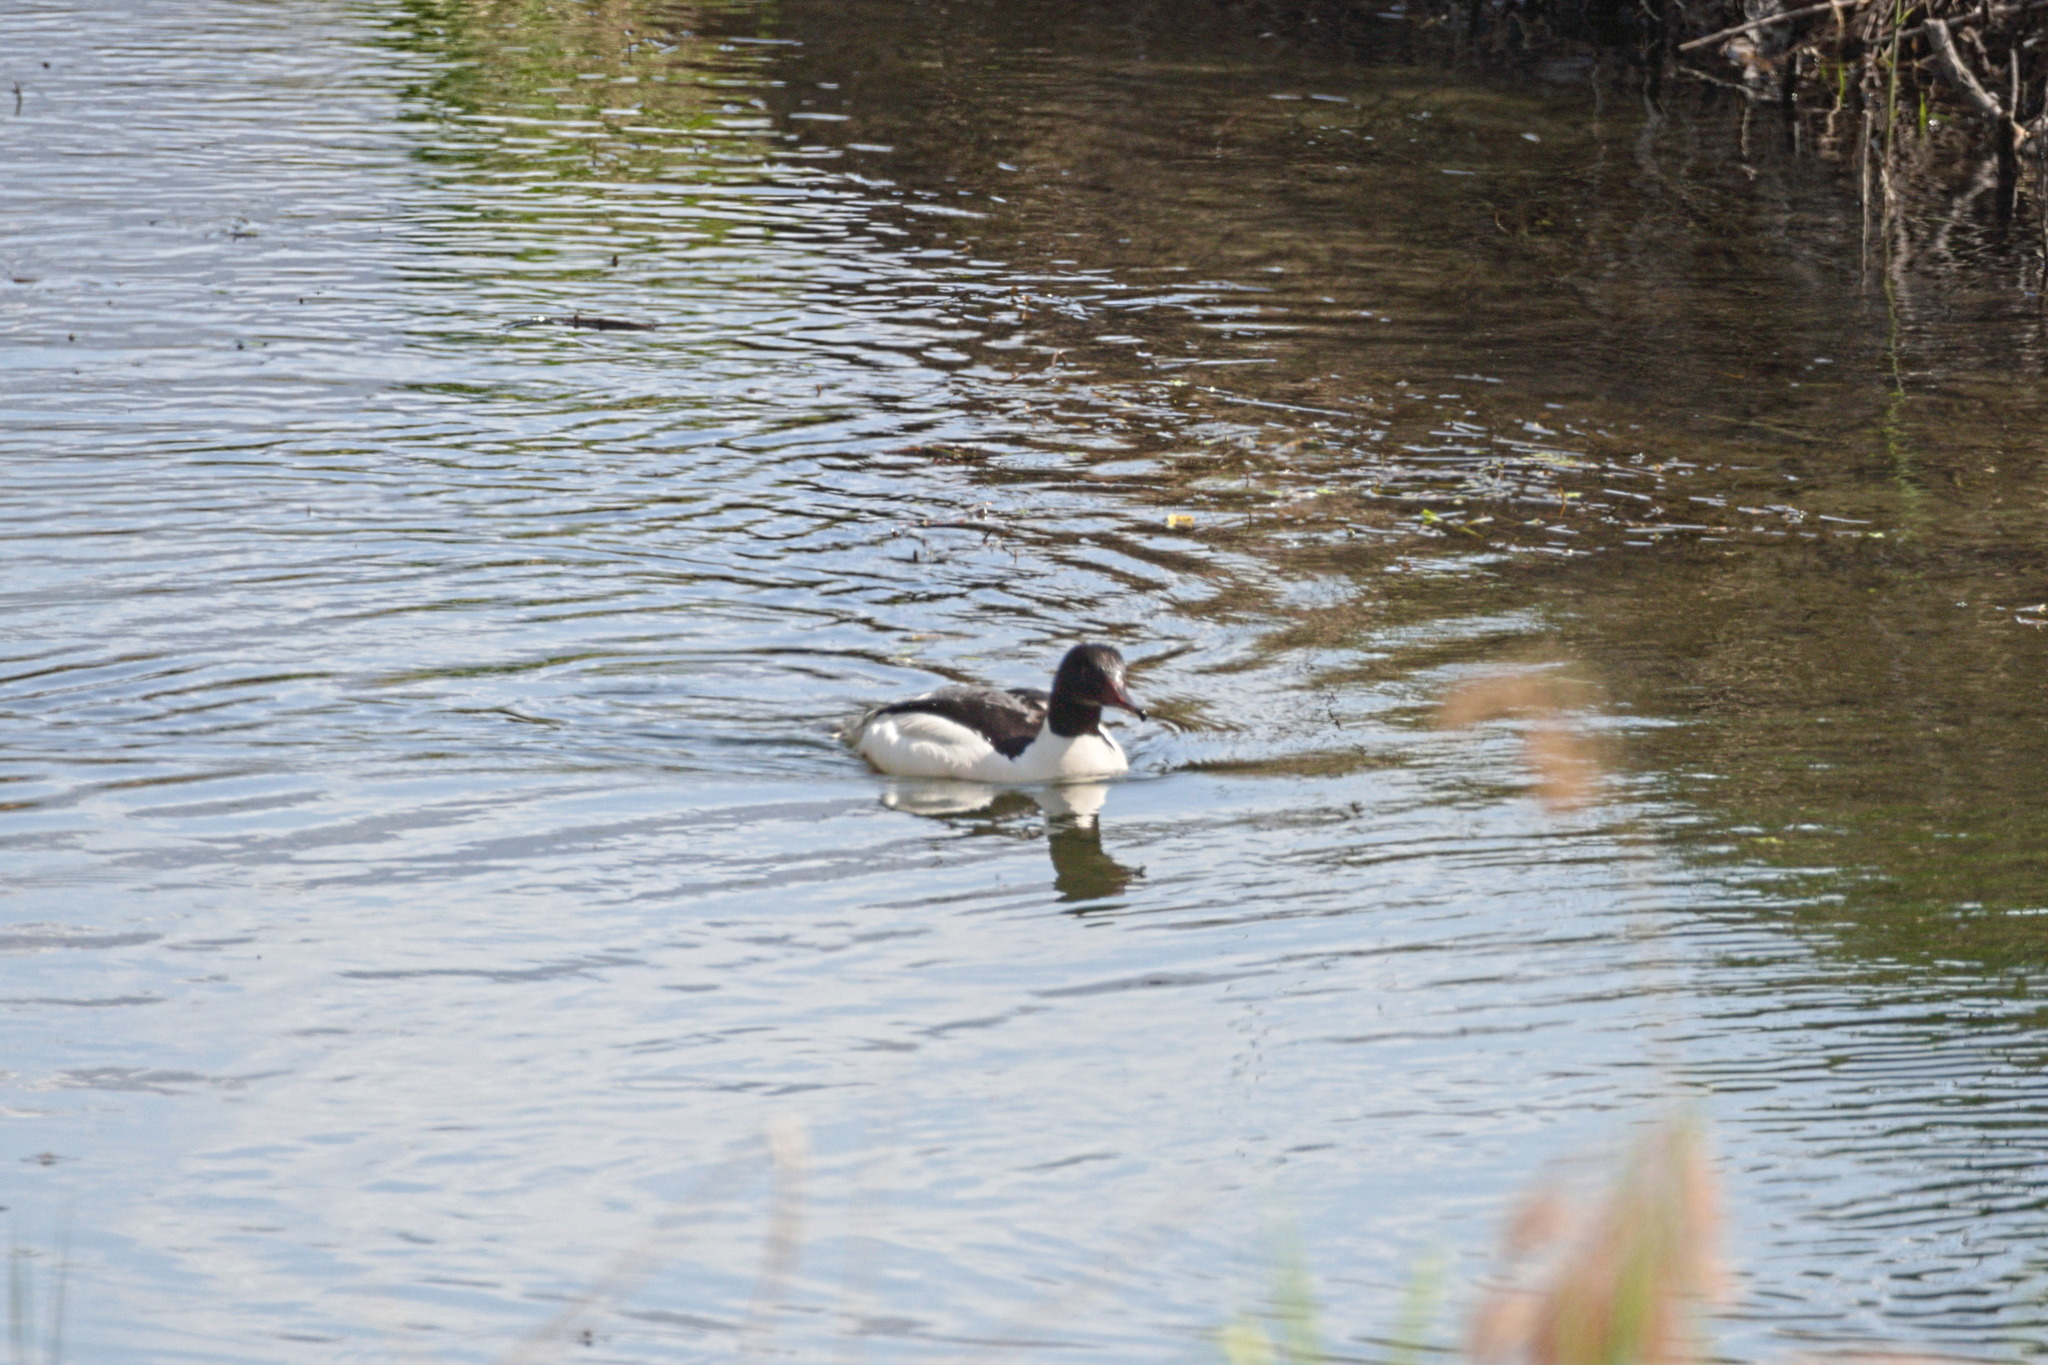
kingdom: Animalia
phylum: Chordata
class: Aves
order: Anseriformes
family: Anatidae
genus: Mergus
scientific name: Mergus merganser
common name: Common merganser
